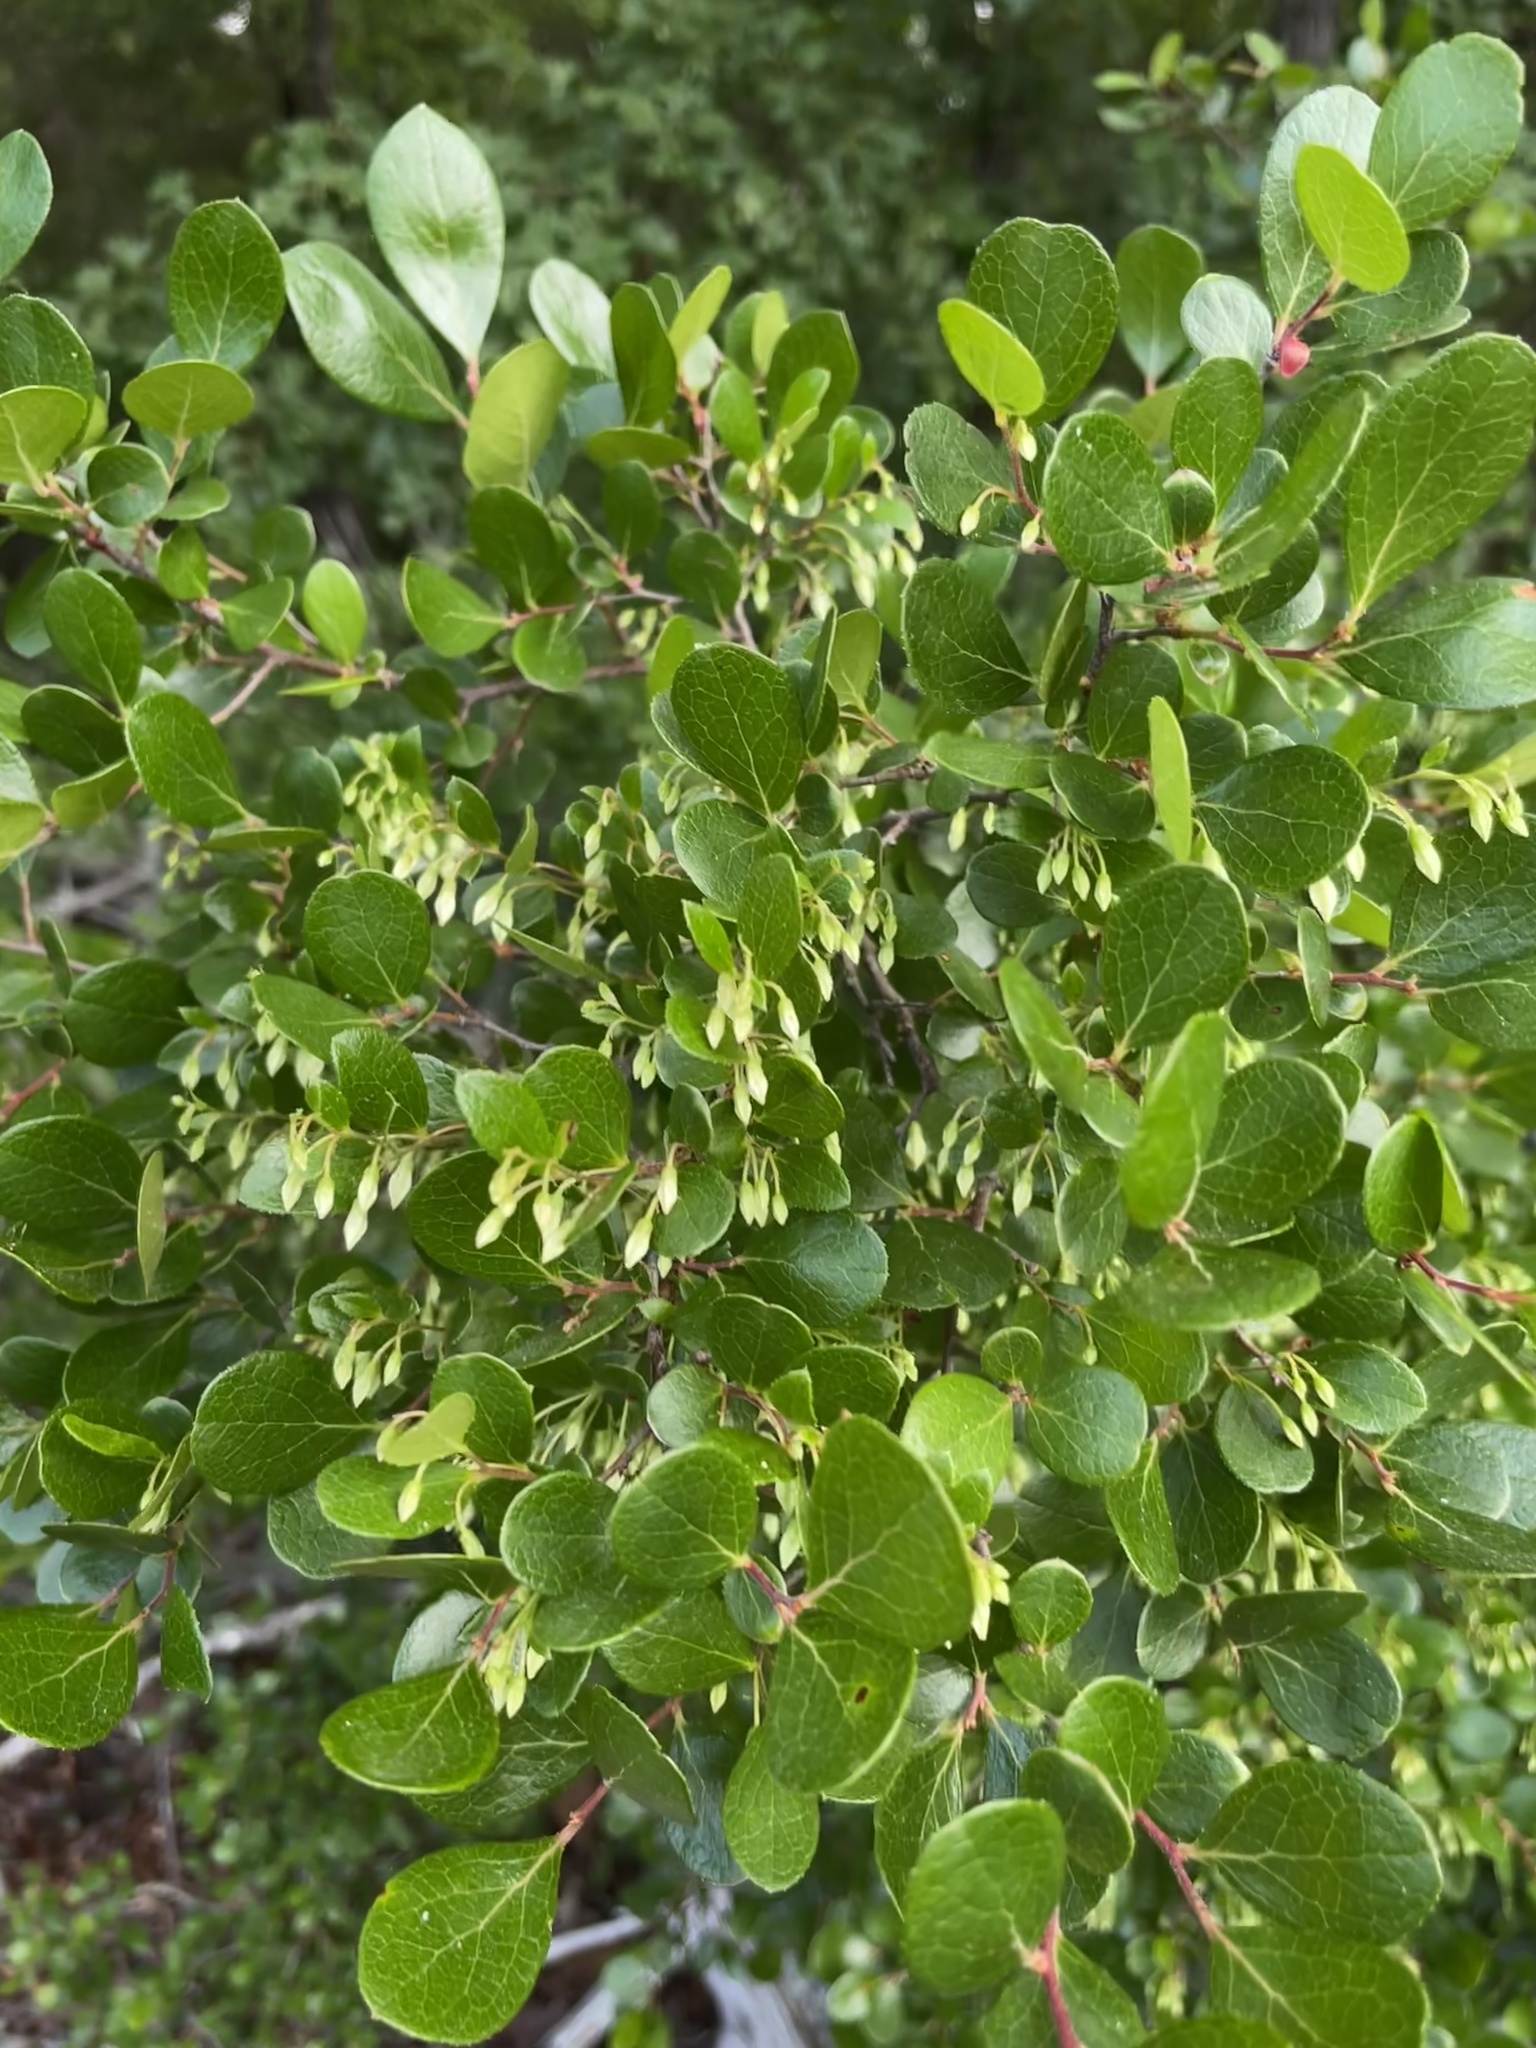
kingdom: Plantae
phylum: Tracheophyta
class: Magnoliopsida
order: Ericales
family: Ericaceae
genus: Vaccinium
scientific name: Vaccinium arboreum
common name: Farkleberry
